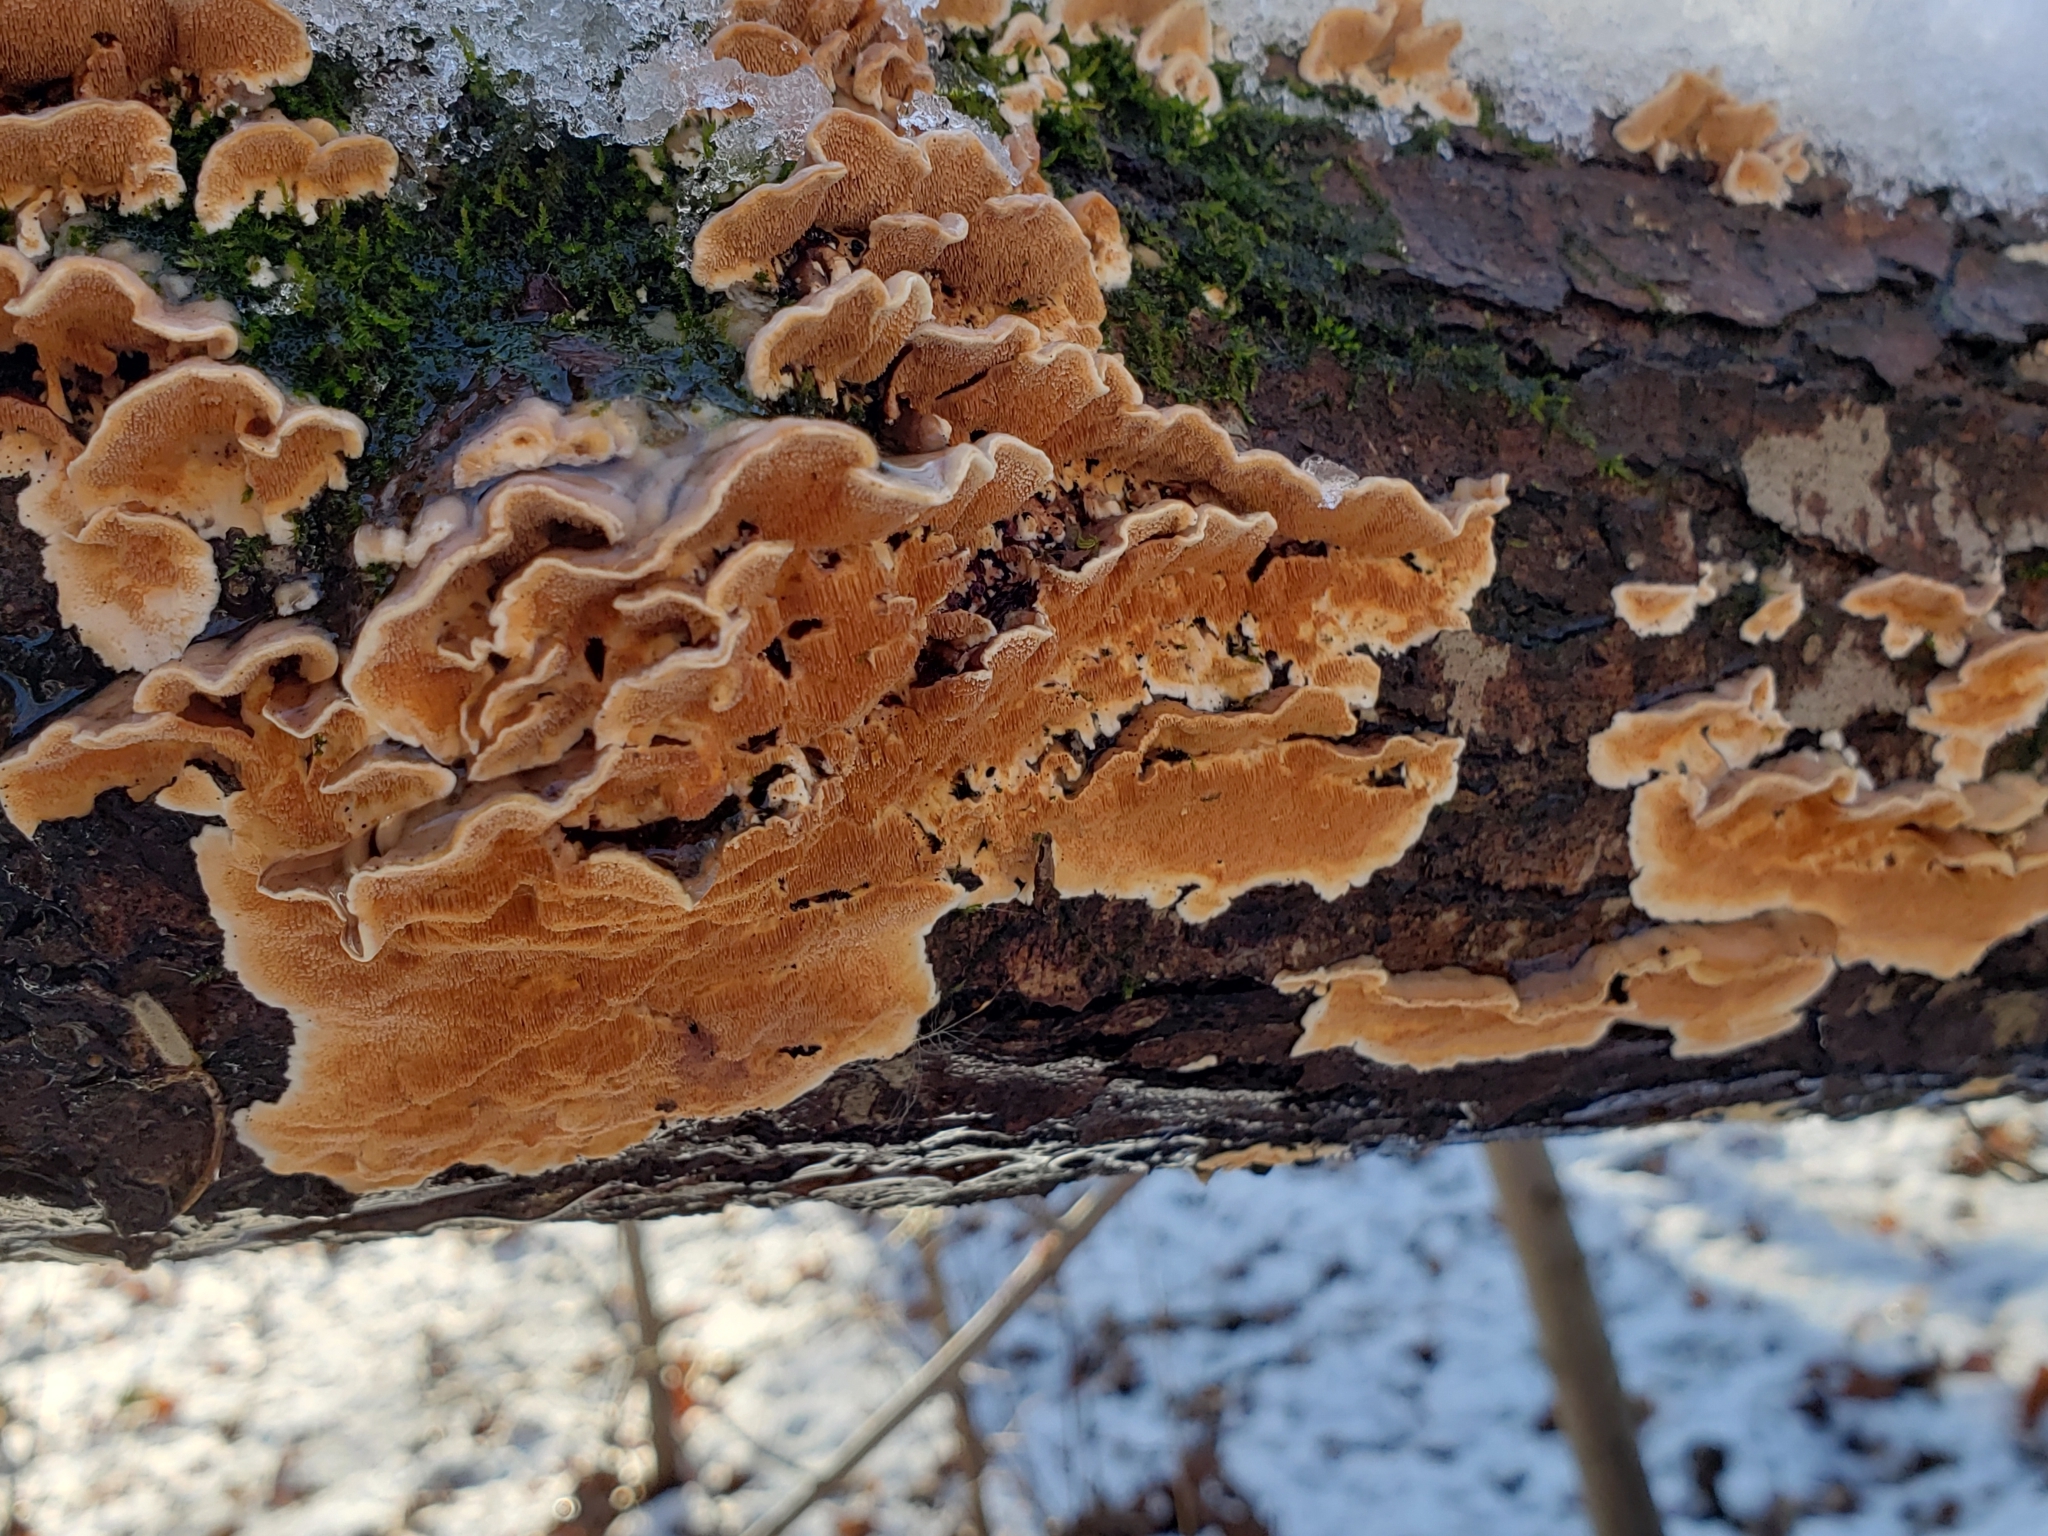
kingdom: Fungi
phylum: Basidiomycota
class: Agaricomycetes
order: Polyporales
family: Steccherinaceae
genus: Steccherinum
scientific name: Steccherinum ochraceum
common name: Ochre spreading tooth
